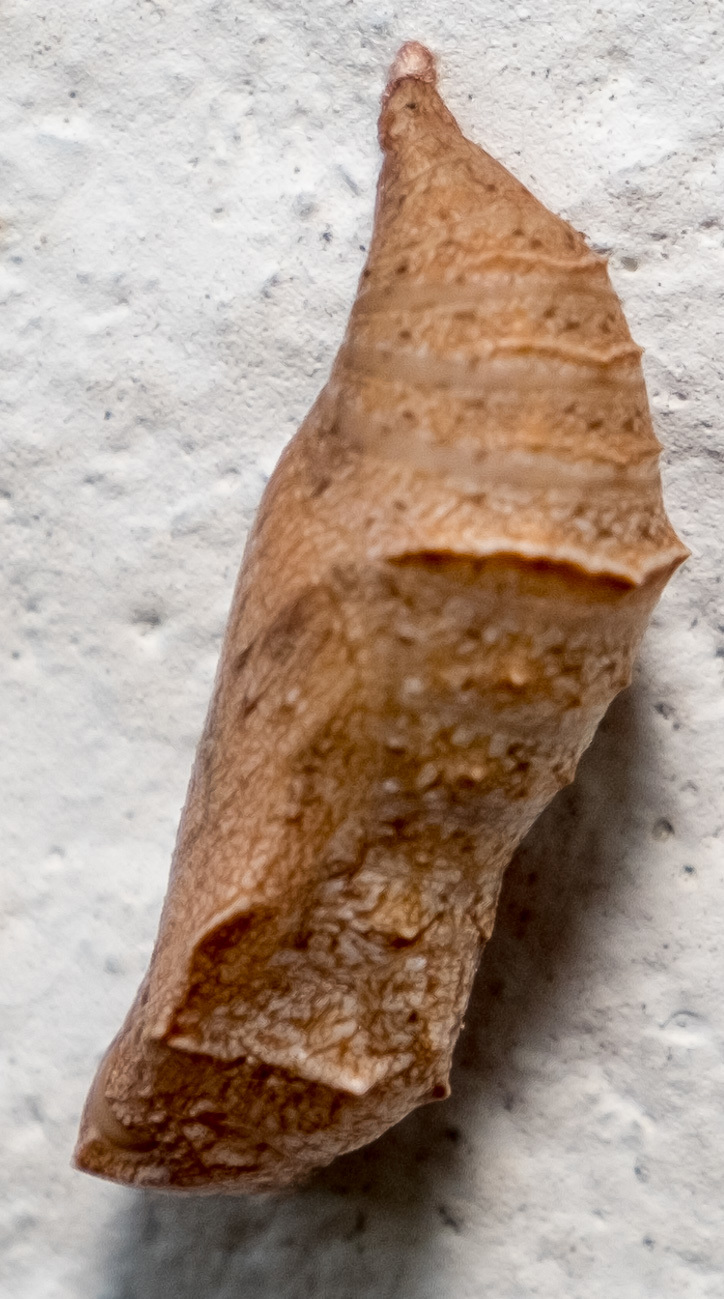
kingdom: Animalia
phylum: Arthropoda
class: Insecta
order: Lepidoptera
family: Nymphalidae
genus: Phyciodes
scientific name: Phyciodes tharos
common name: Pearl crescent
